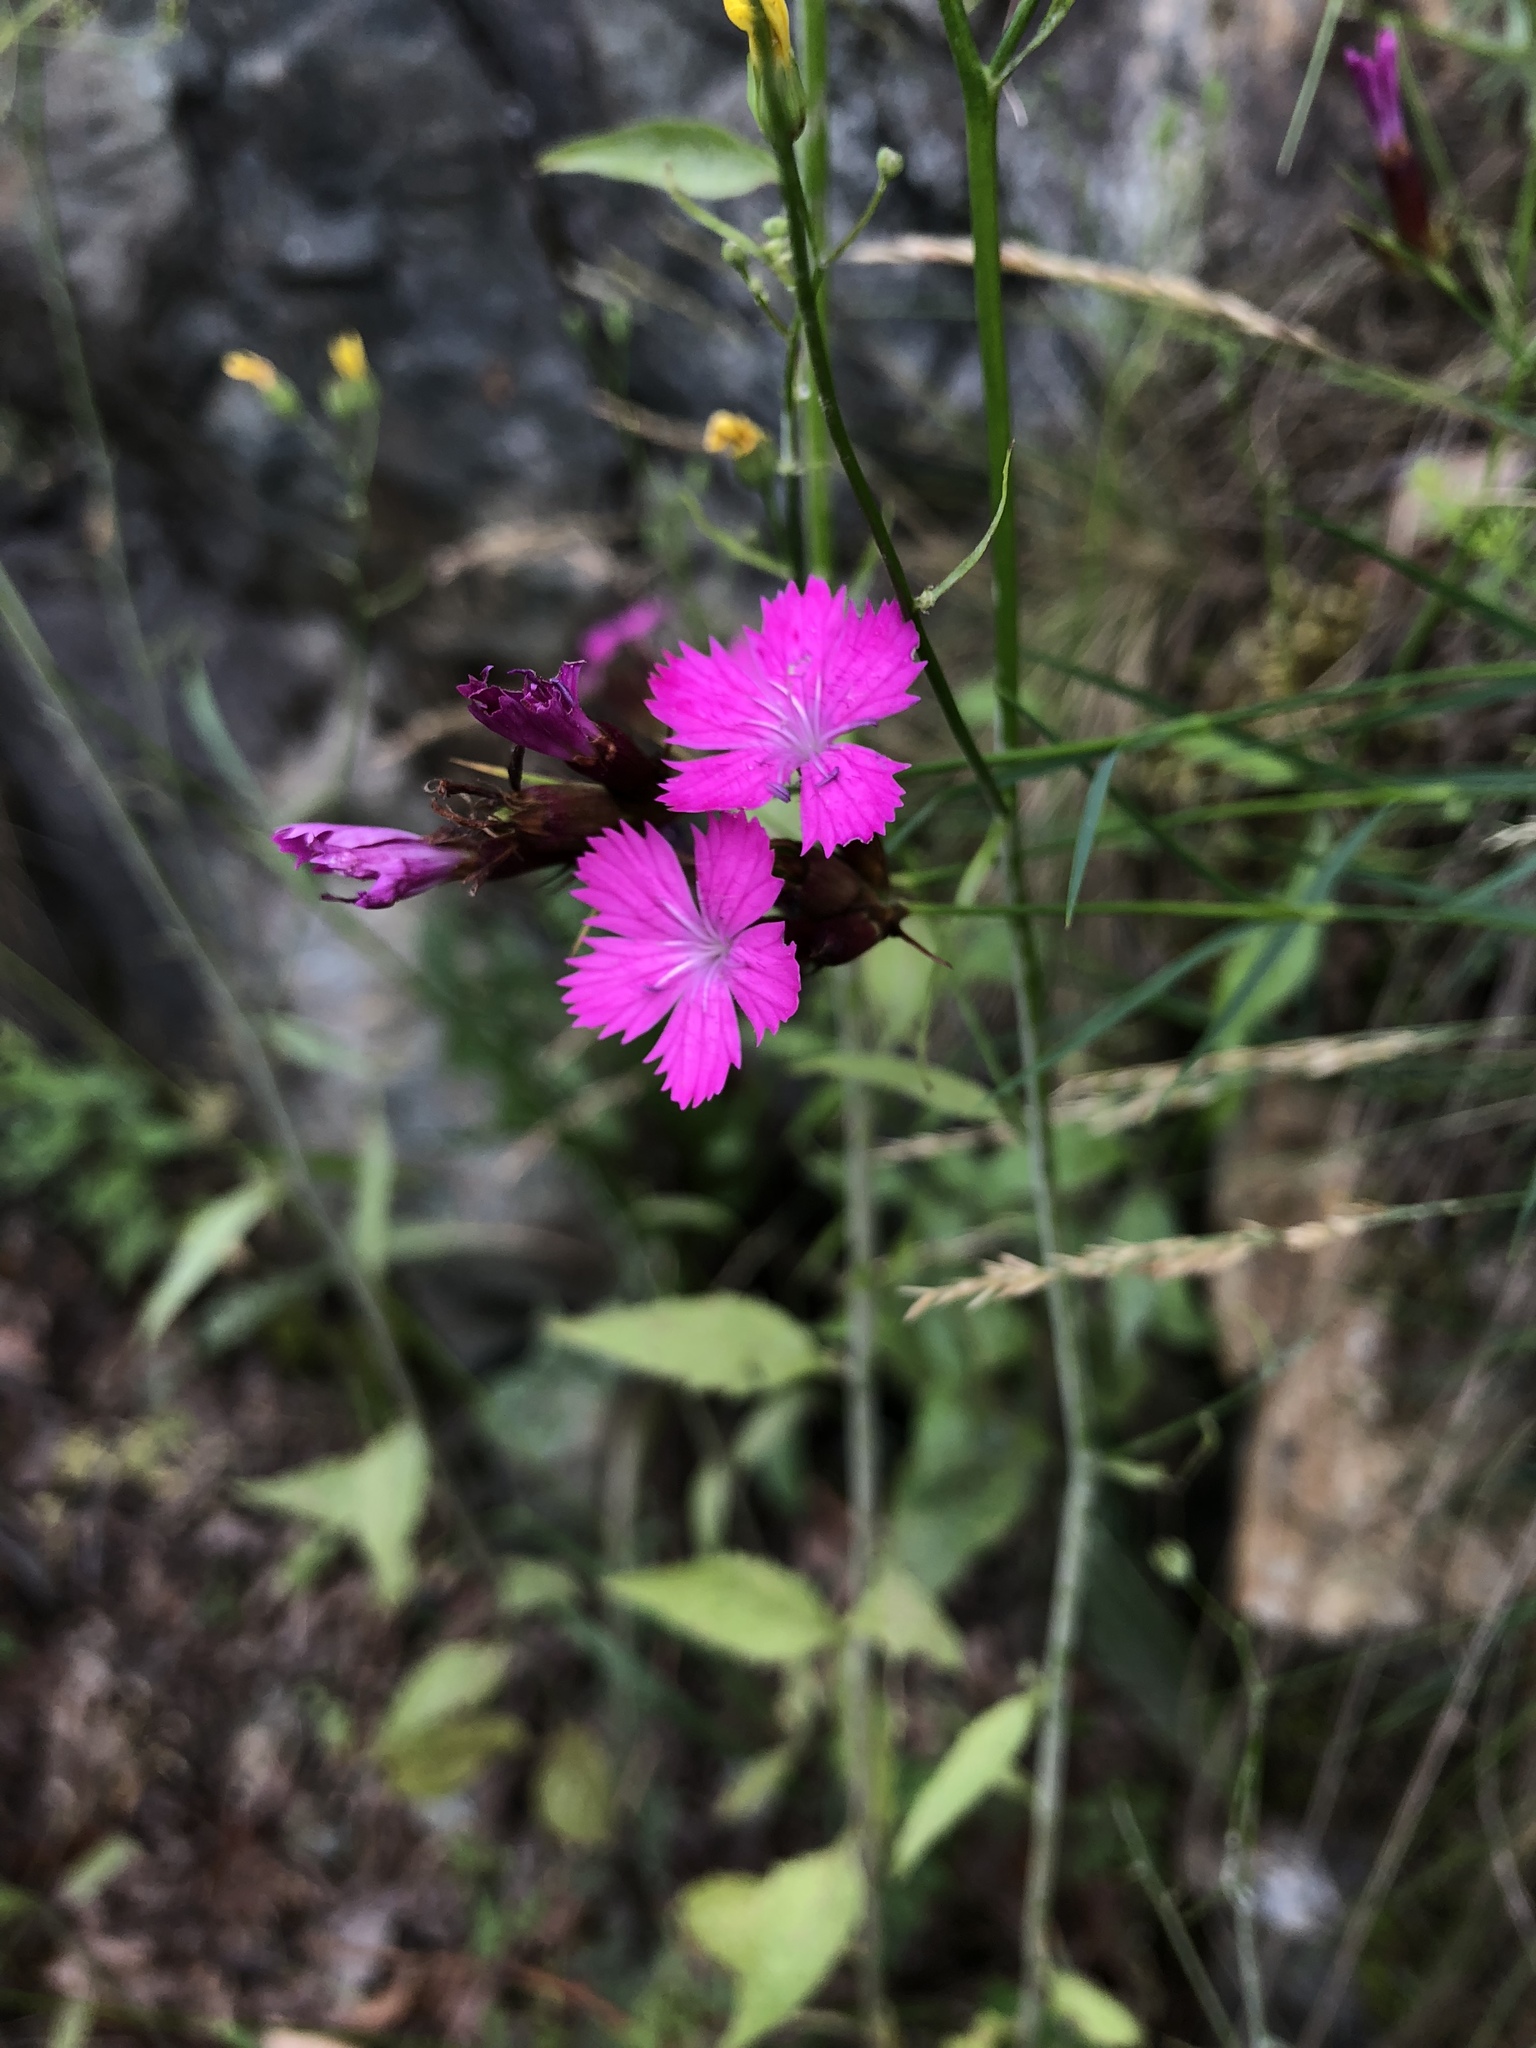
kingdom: Plantae
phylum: Tracheophyta
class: Magnoliopsida
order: Caryophyllales
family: Caryophyllaceae
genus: Dianthus
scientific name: Dianthus carthusianorum
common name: Carthusian pink
